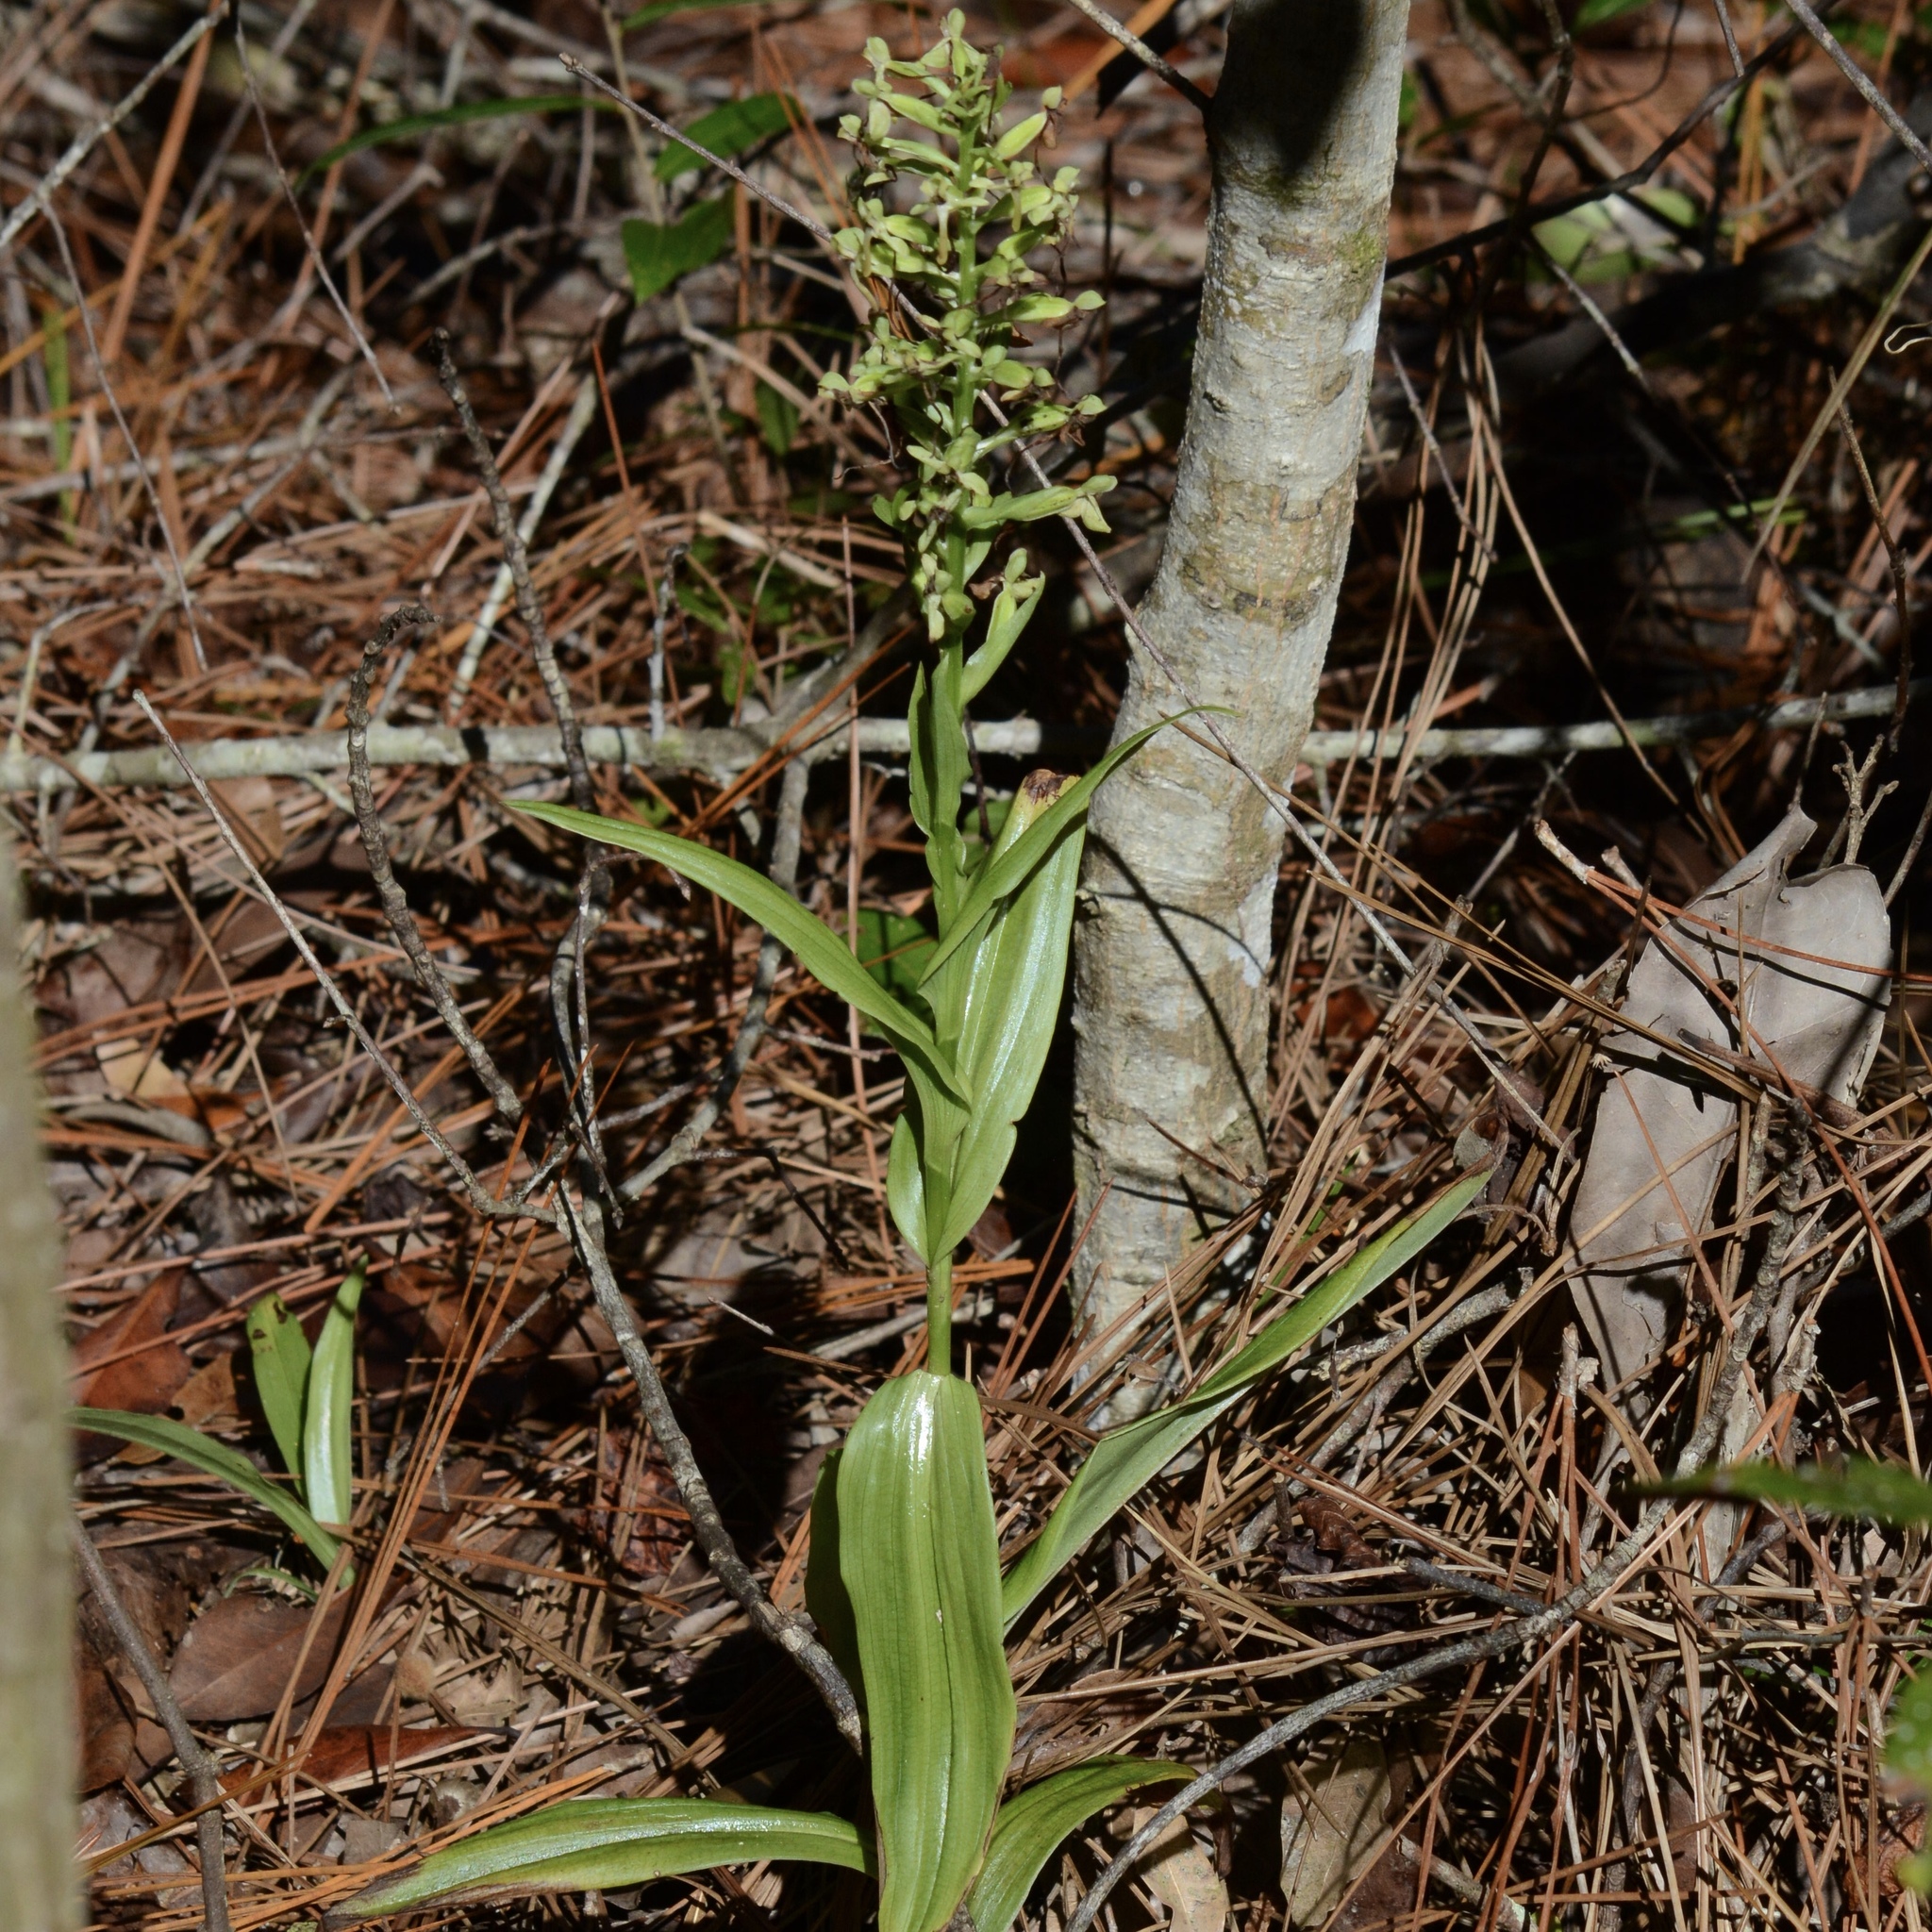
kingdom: Plantae
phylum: Tracheophyta
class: Liliopsida
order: Asparagales
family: Orchidaceae
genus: Habenaria
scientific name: Habenaria floribunda
